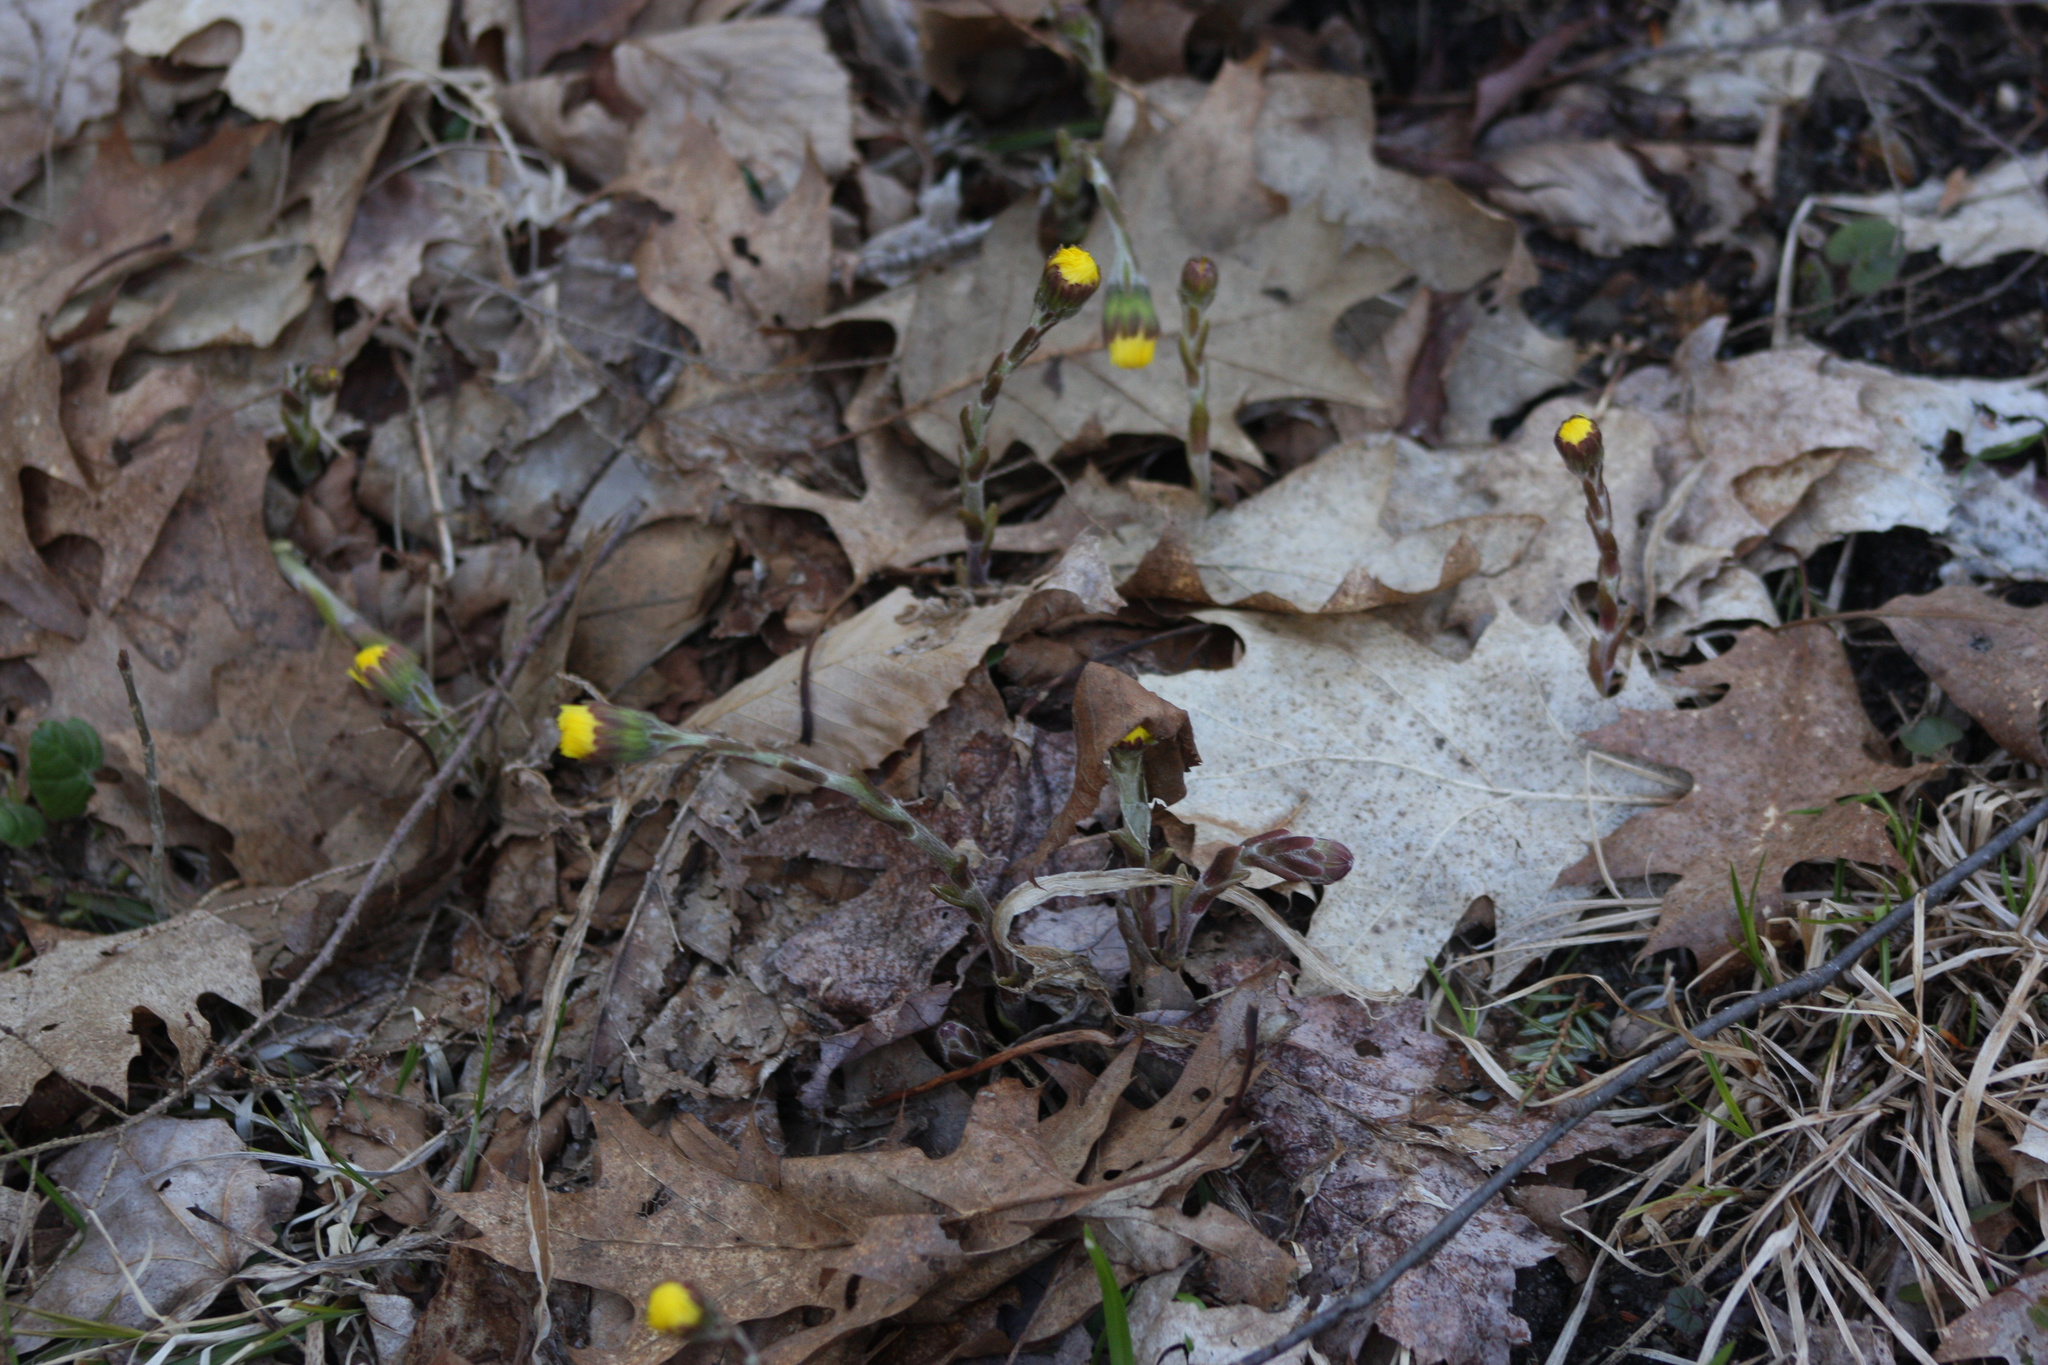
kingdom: Plantae
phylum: Tracheophyta
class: Magnoliopsida
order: Asterales
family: Asteraceae
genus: Tussilago
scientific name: Tussilago farfara
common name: Coltsfoot
